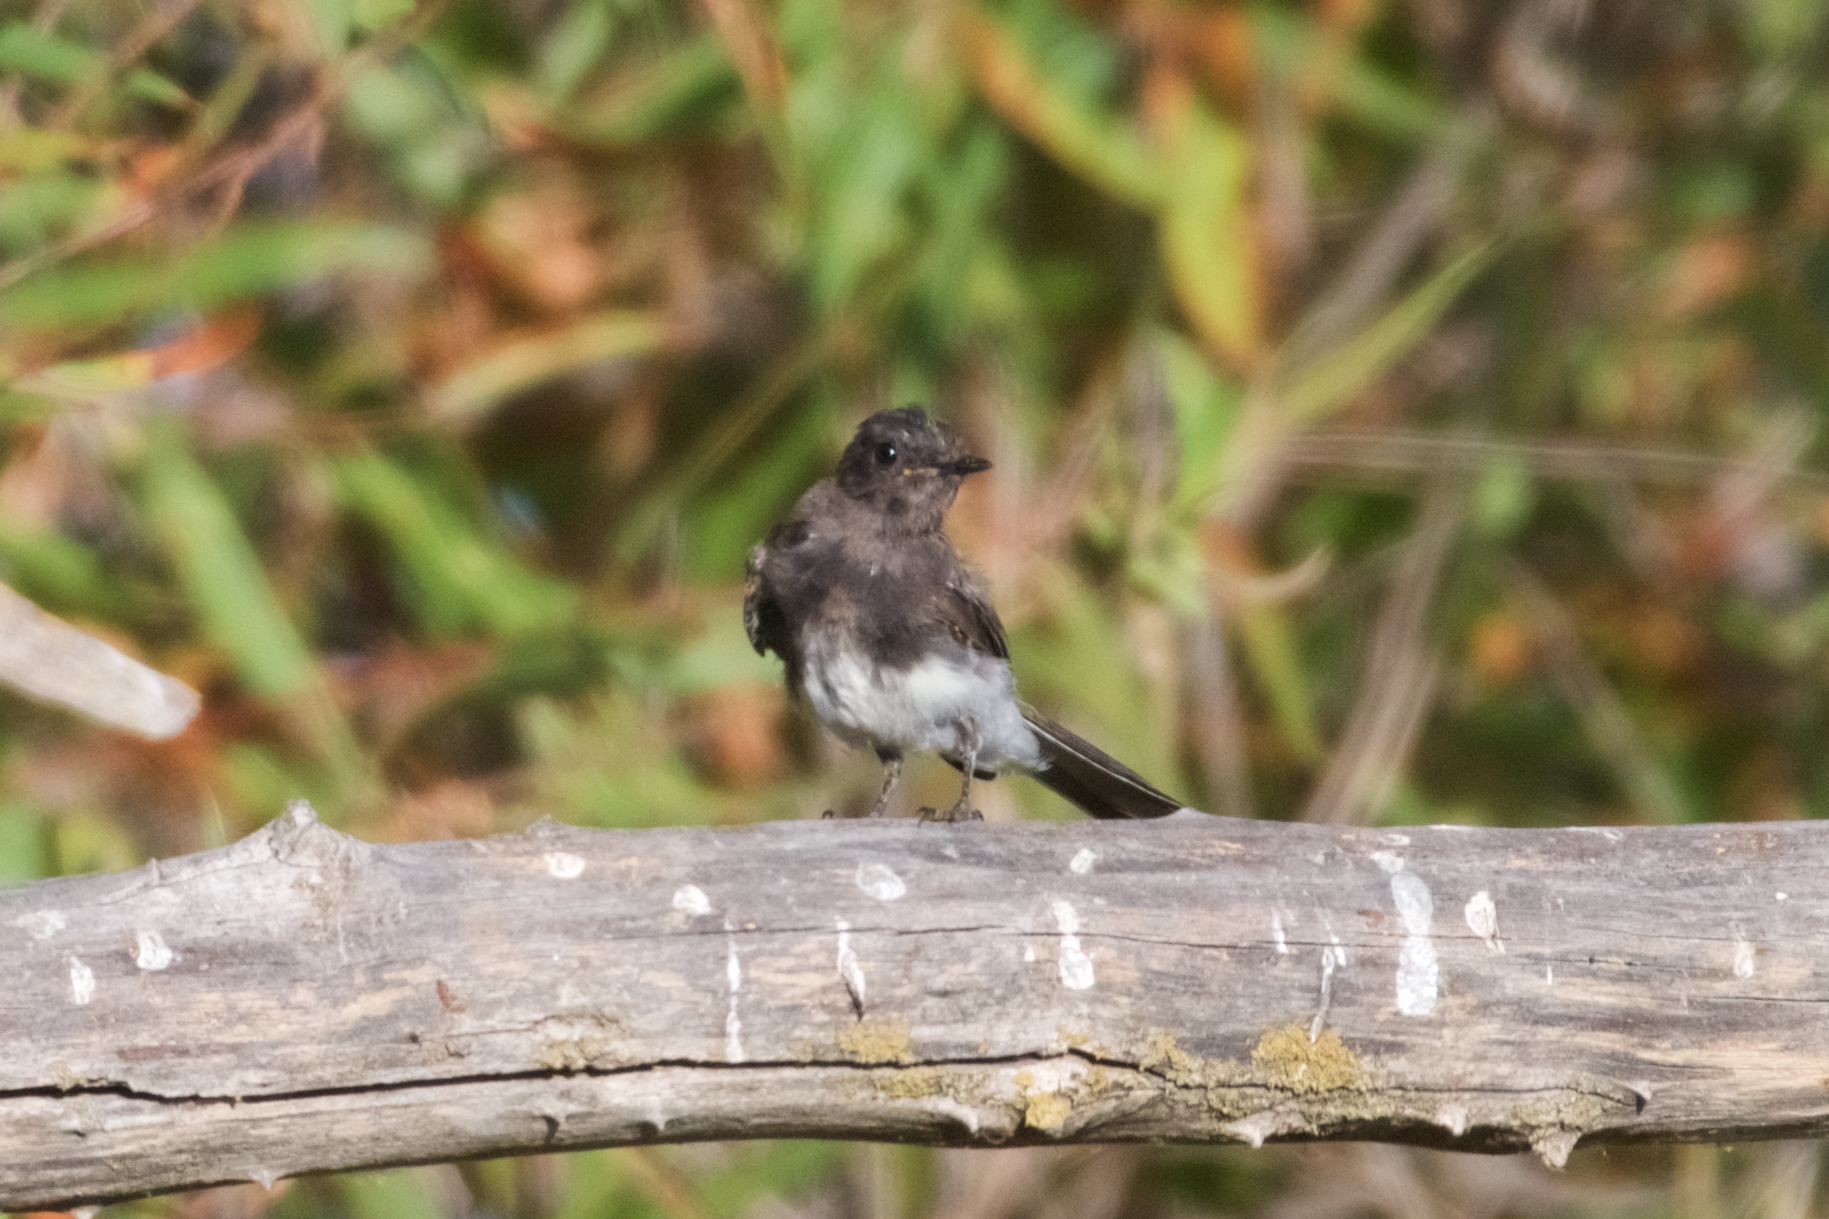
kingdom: Animalia
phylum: Chordata
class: Aves
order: Passeriformes
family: Tyrannidae
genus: Sayornis
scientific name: Sayornis nigricans
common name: Black phoebe
